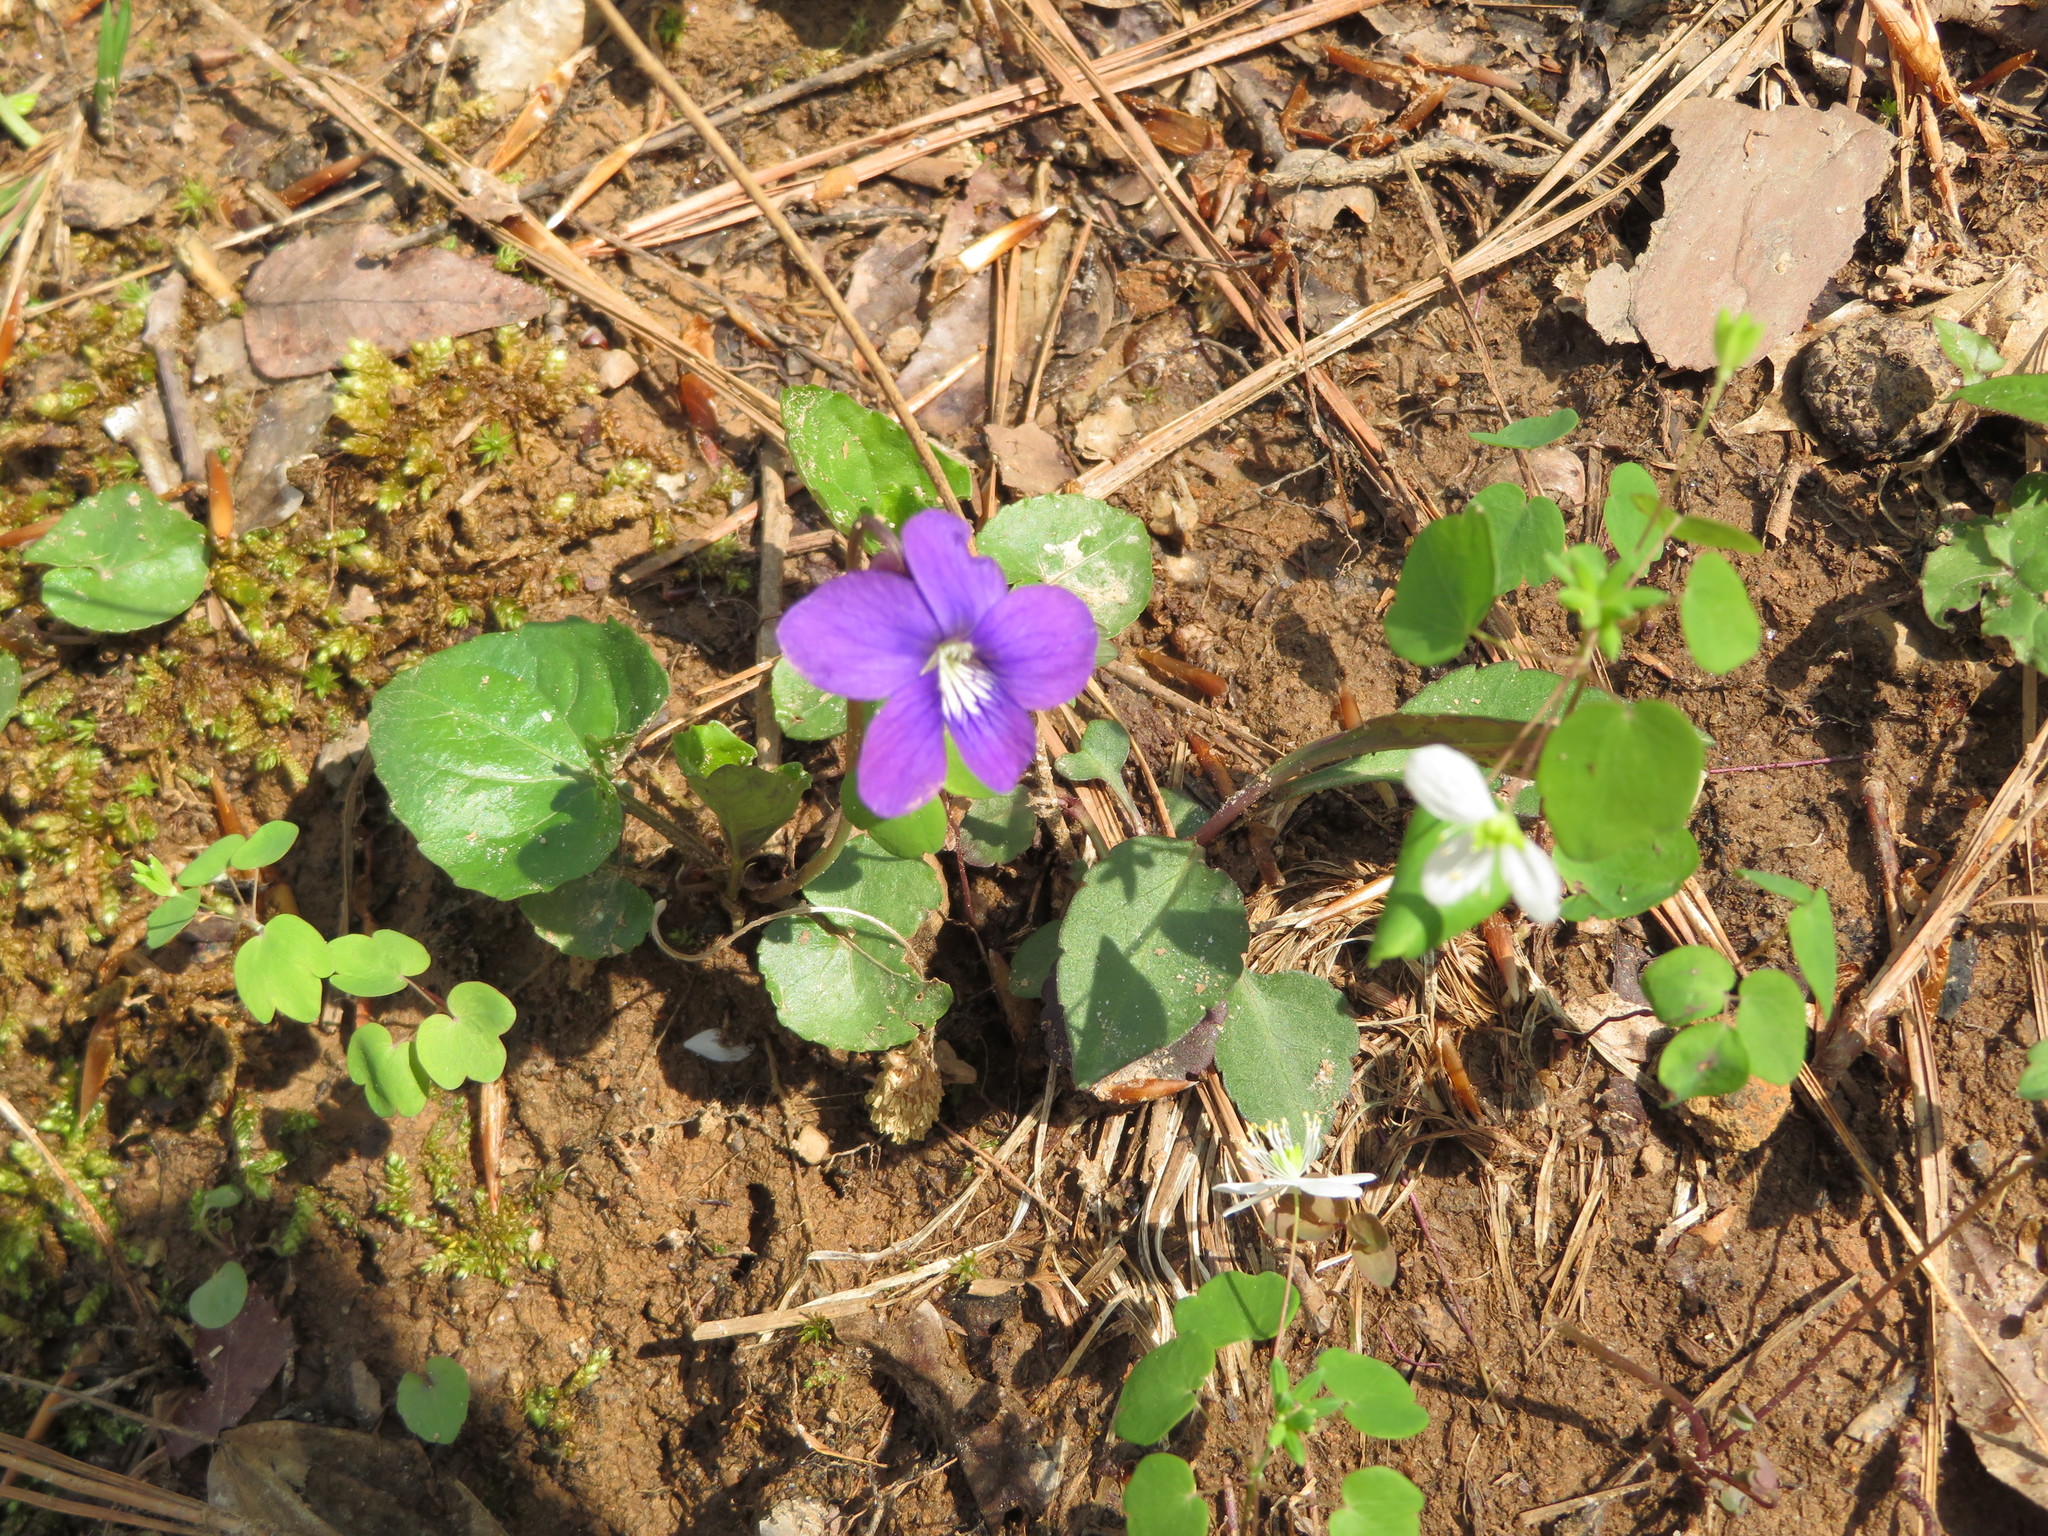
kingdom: Plantae
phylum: Tracheophyta
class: Magnoliopsida
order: Malpighiales
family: Violaceae
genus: Viola
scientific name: Viola sororia
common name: Dooryard violet
